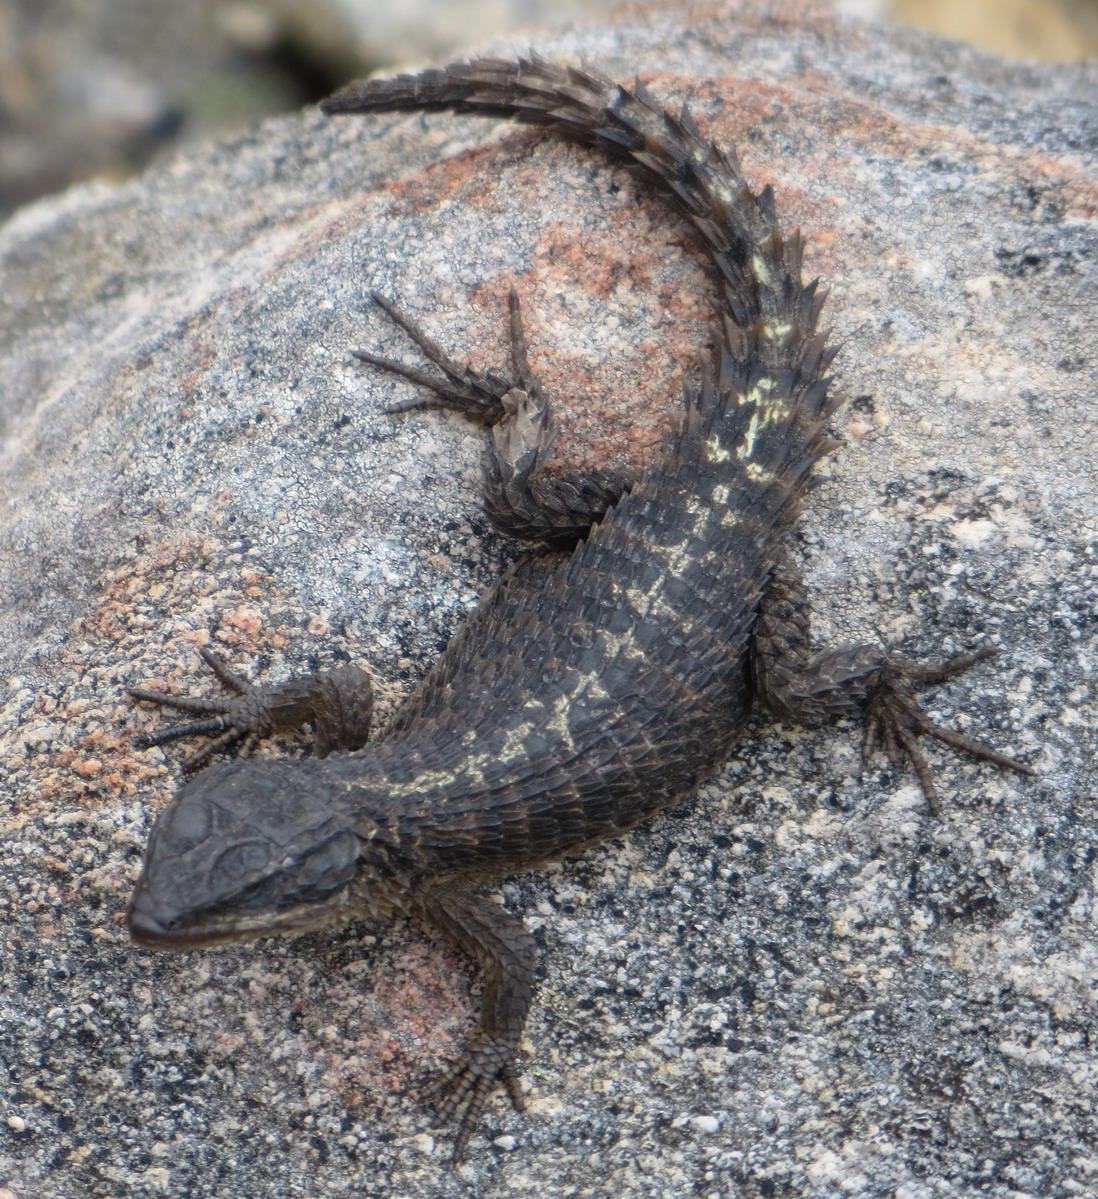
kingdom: Animalia
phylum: Chordata
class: Squamata
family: Cordylidae
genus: Cordylus
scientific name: Cordylus cordylus
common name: Cape girdled lizard
